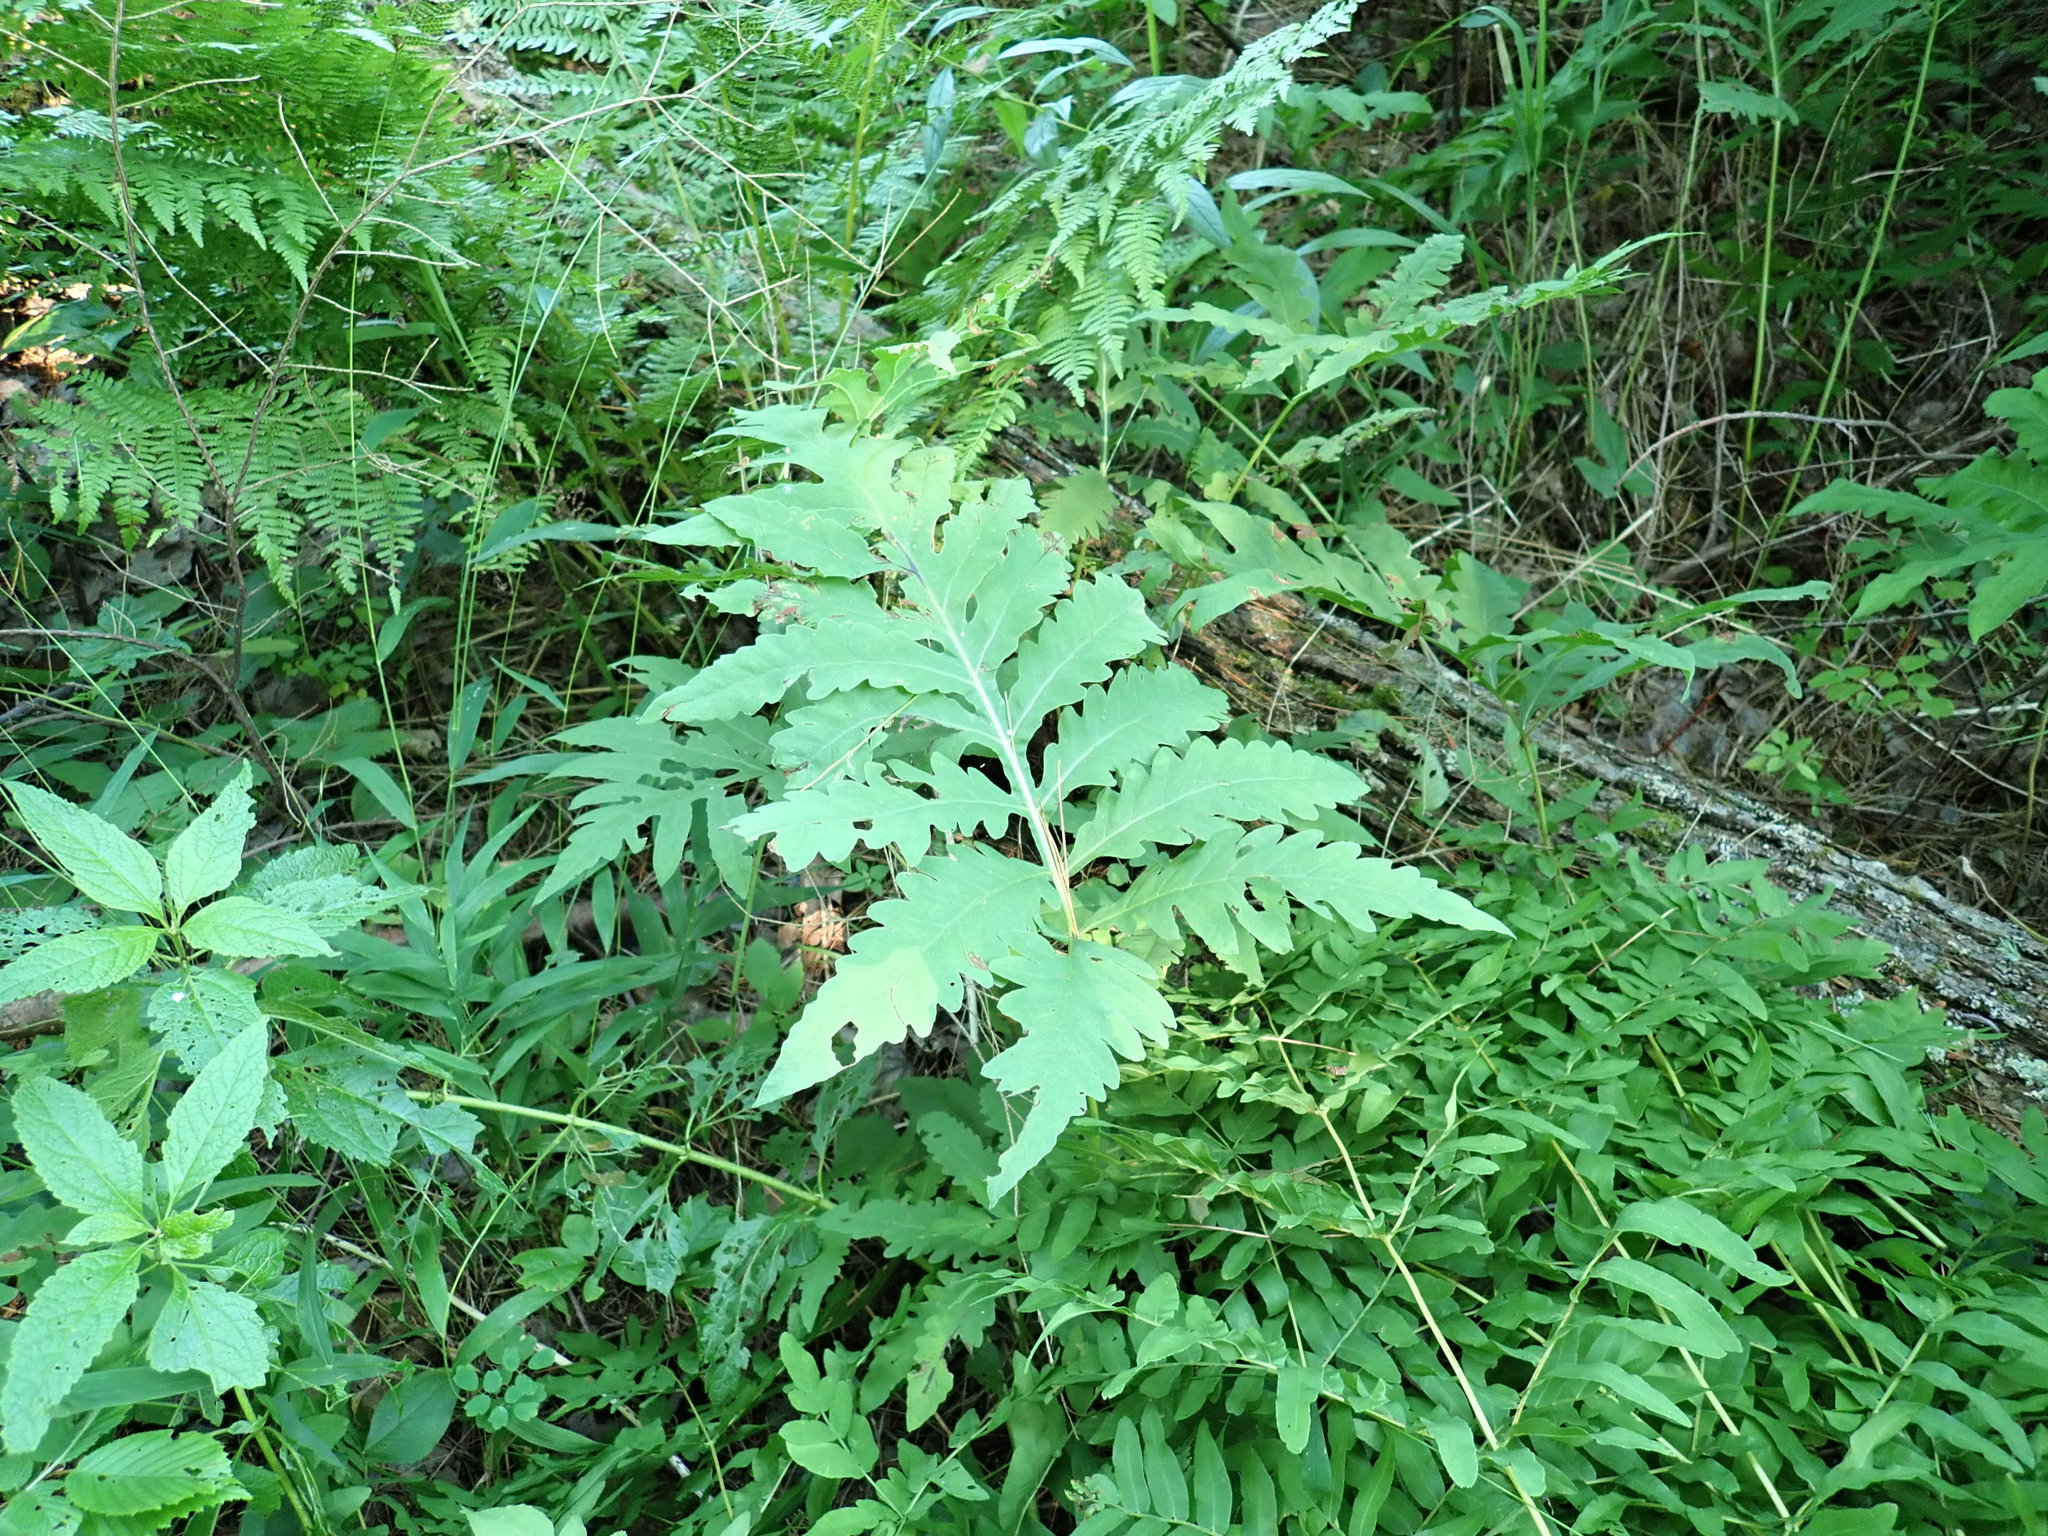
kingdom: Plantae
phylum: Tracheophyta
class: Polypodiopsida
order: Polypodiales
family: Onocleaceae
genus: Onoclea
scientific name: Onoclea sensibilis
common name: Sensitive fern
